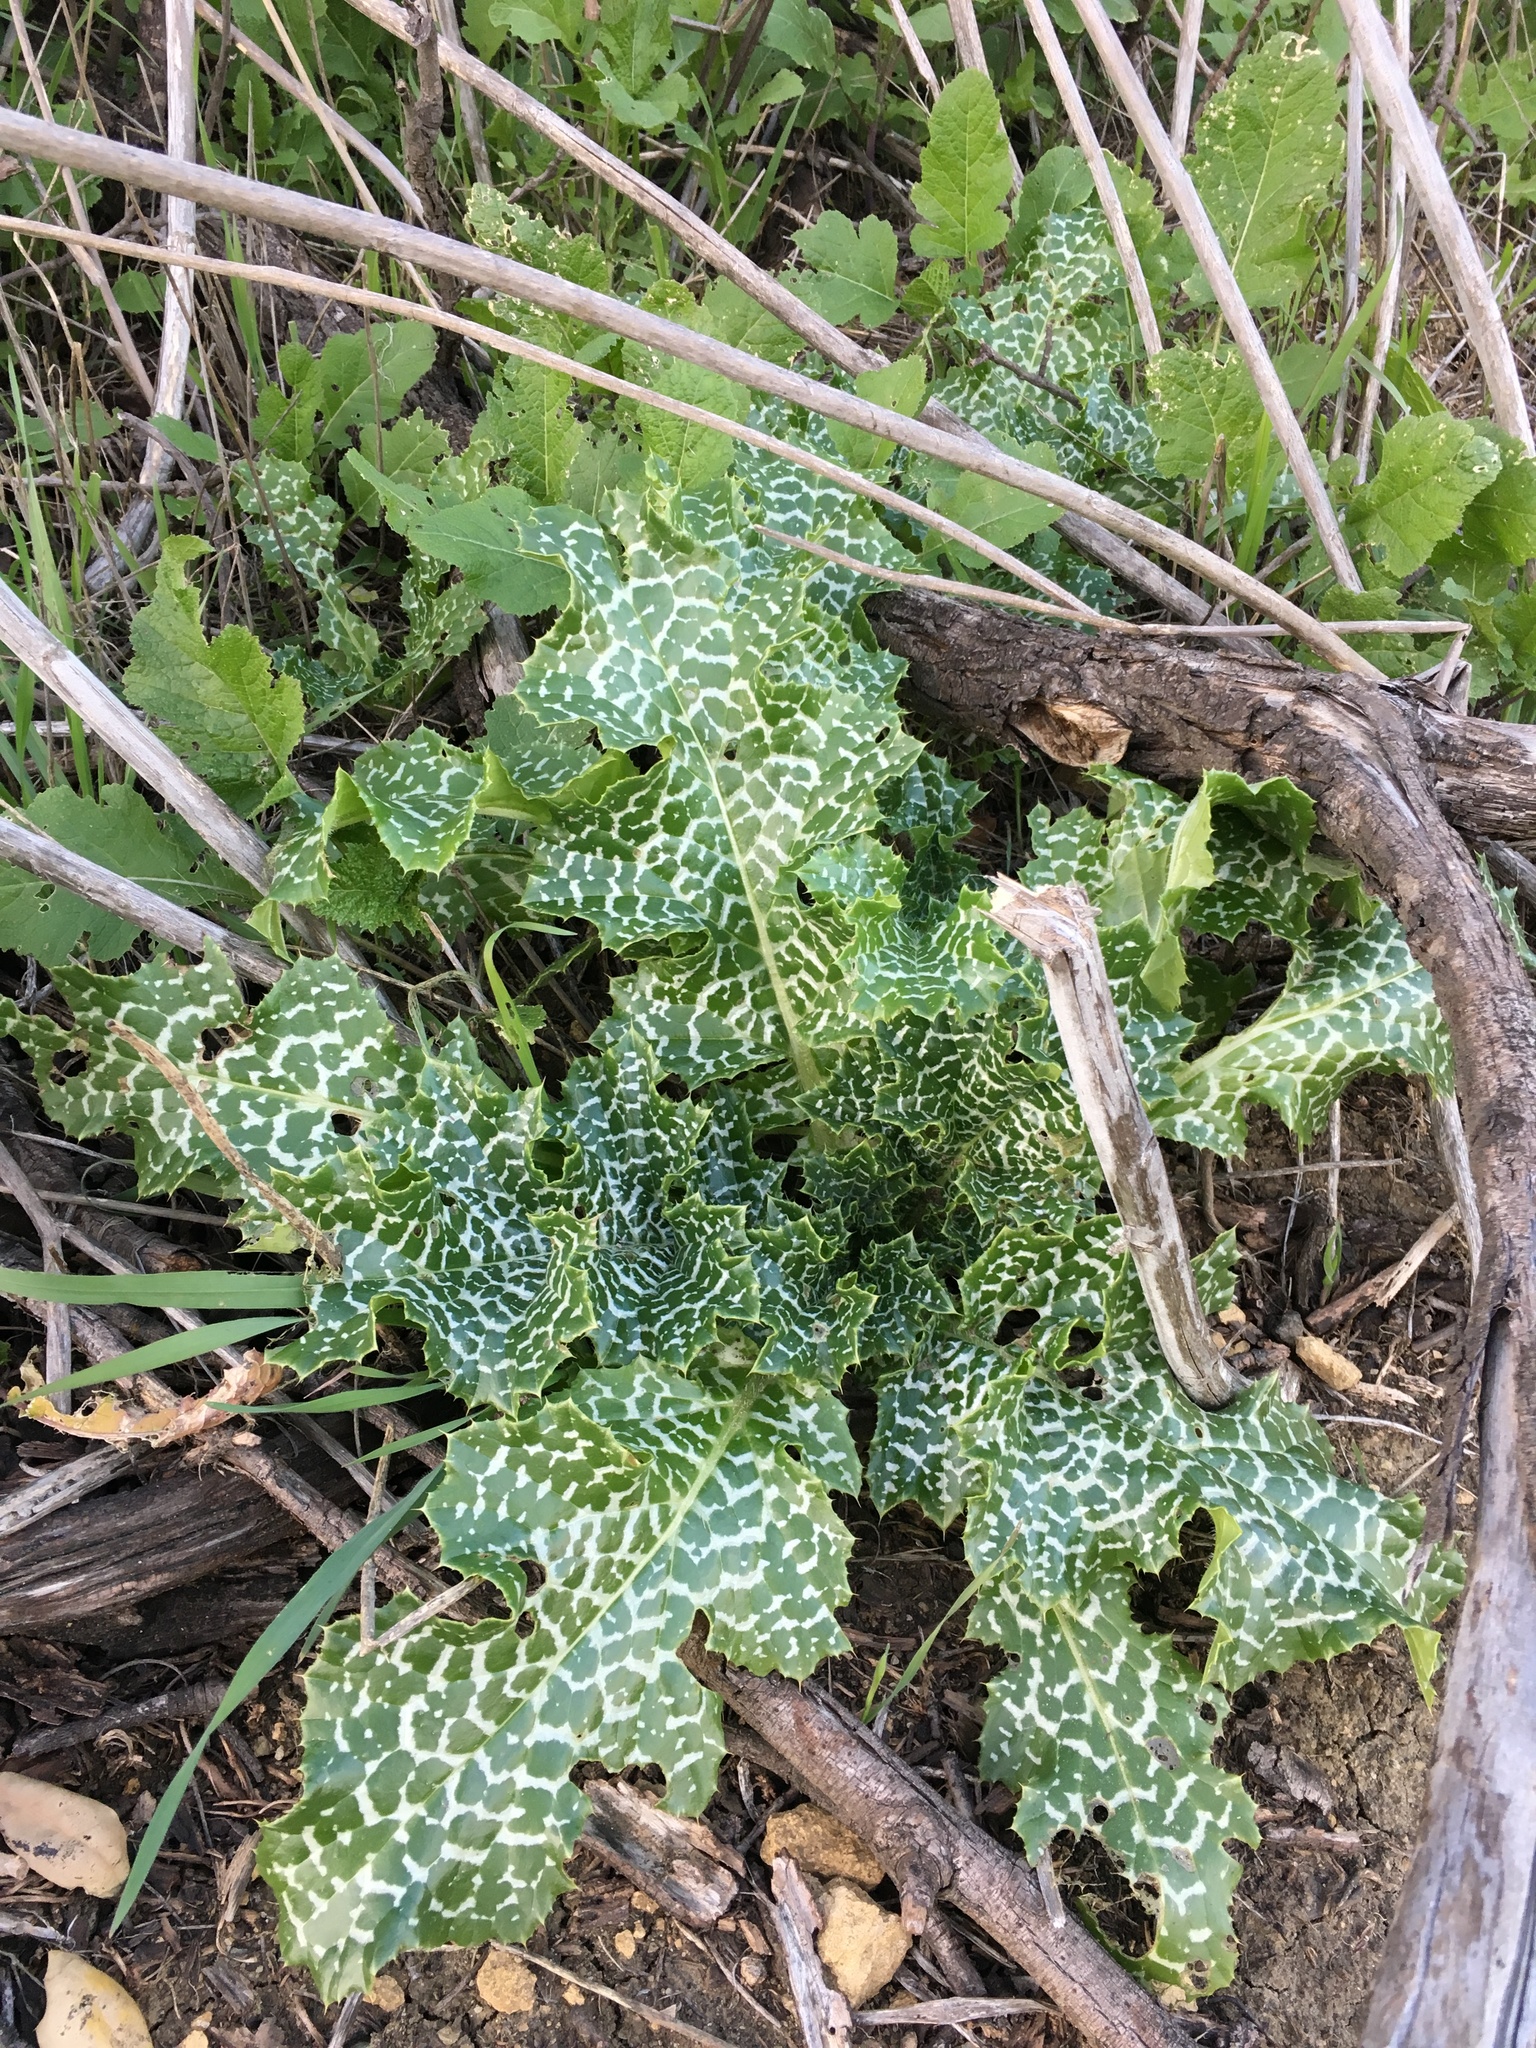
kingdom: Plantae
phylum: Tracheophyta
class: Magnoliopsida
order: Asterales
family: Asteraceae
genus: Silybum
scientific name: Silybum marianum
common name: Milk thistle
